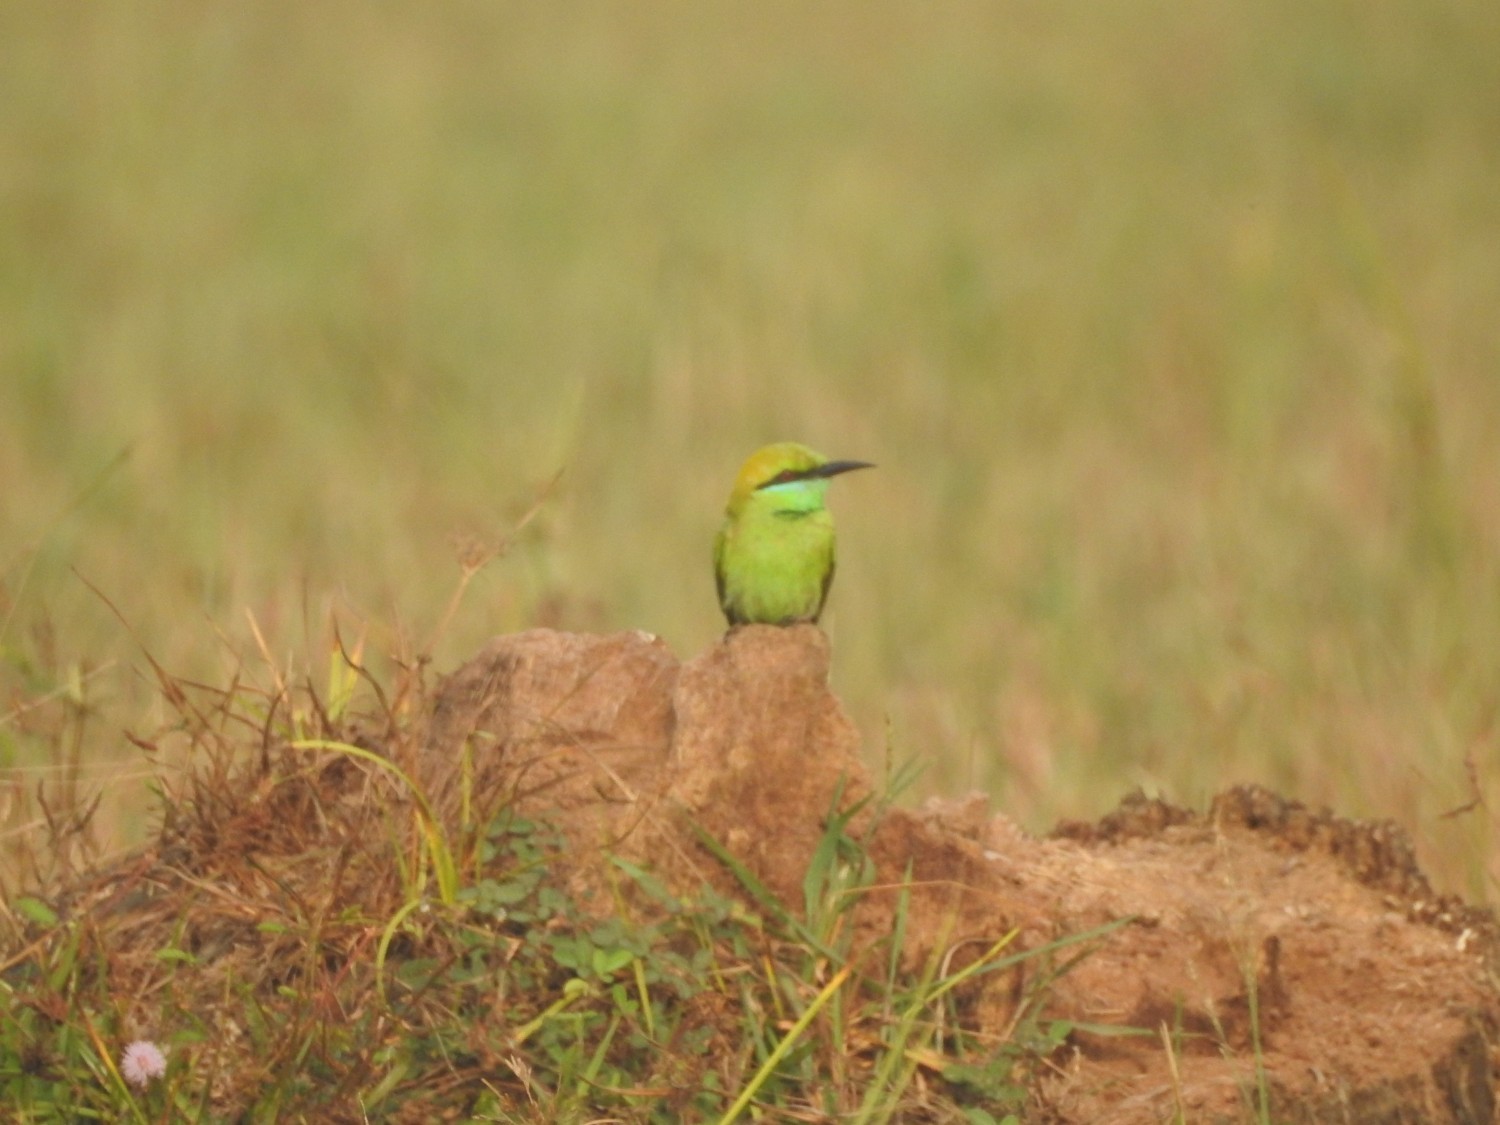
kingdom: Animalia
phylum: Chordata
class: Aves
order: Coraciiformes
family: Meropidae
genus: Merops
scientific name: Merops orientalis
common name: Green bee-eater
